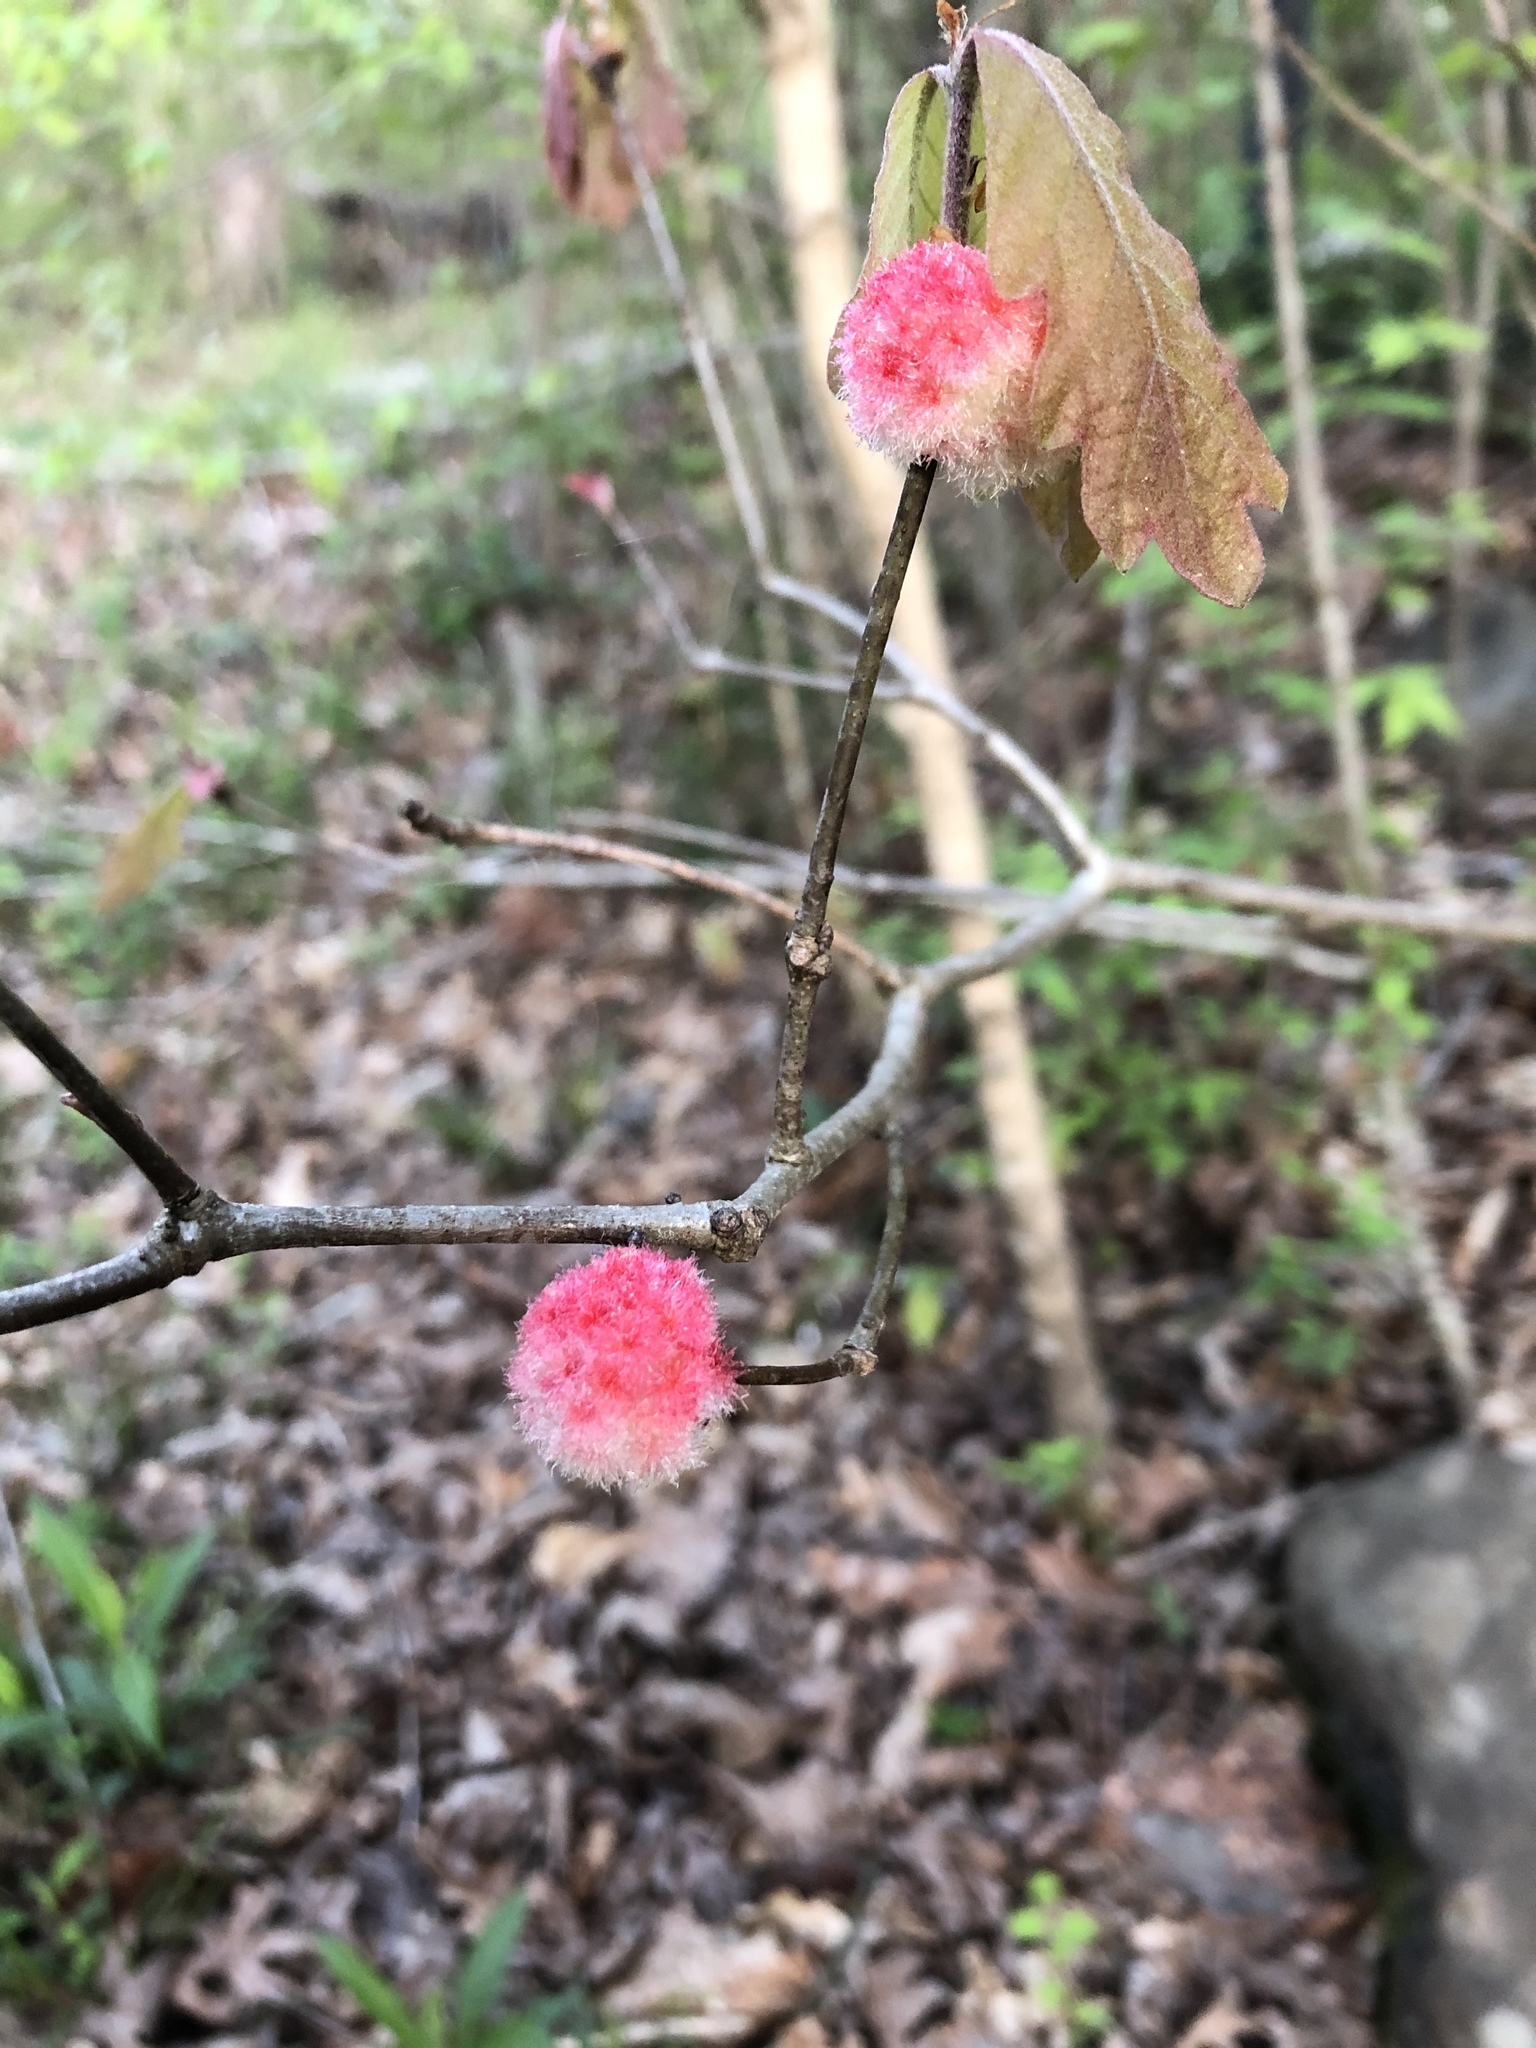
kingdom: Animalia
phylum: Arthropoda
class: Insecta
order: Hymenoptera
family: Cynipidae
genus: Callirhytis
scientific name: Callirhytis
